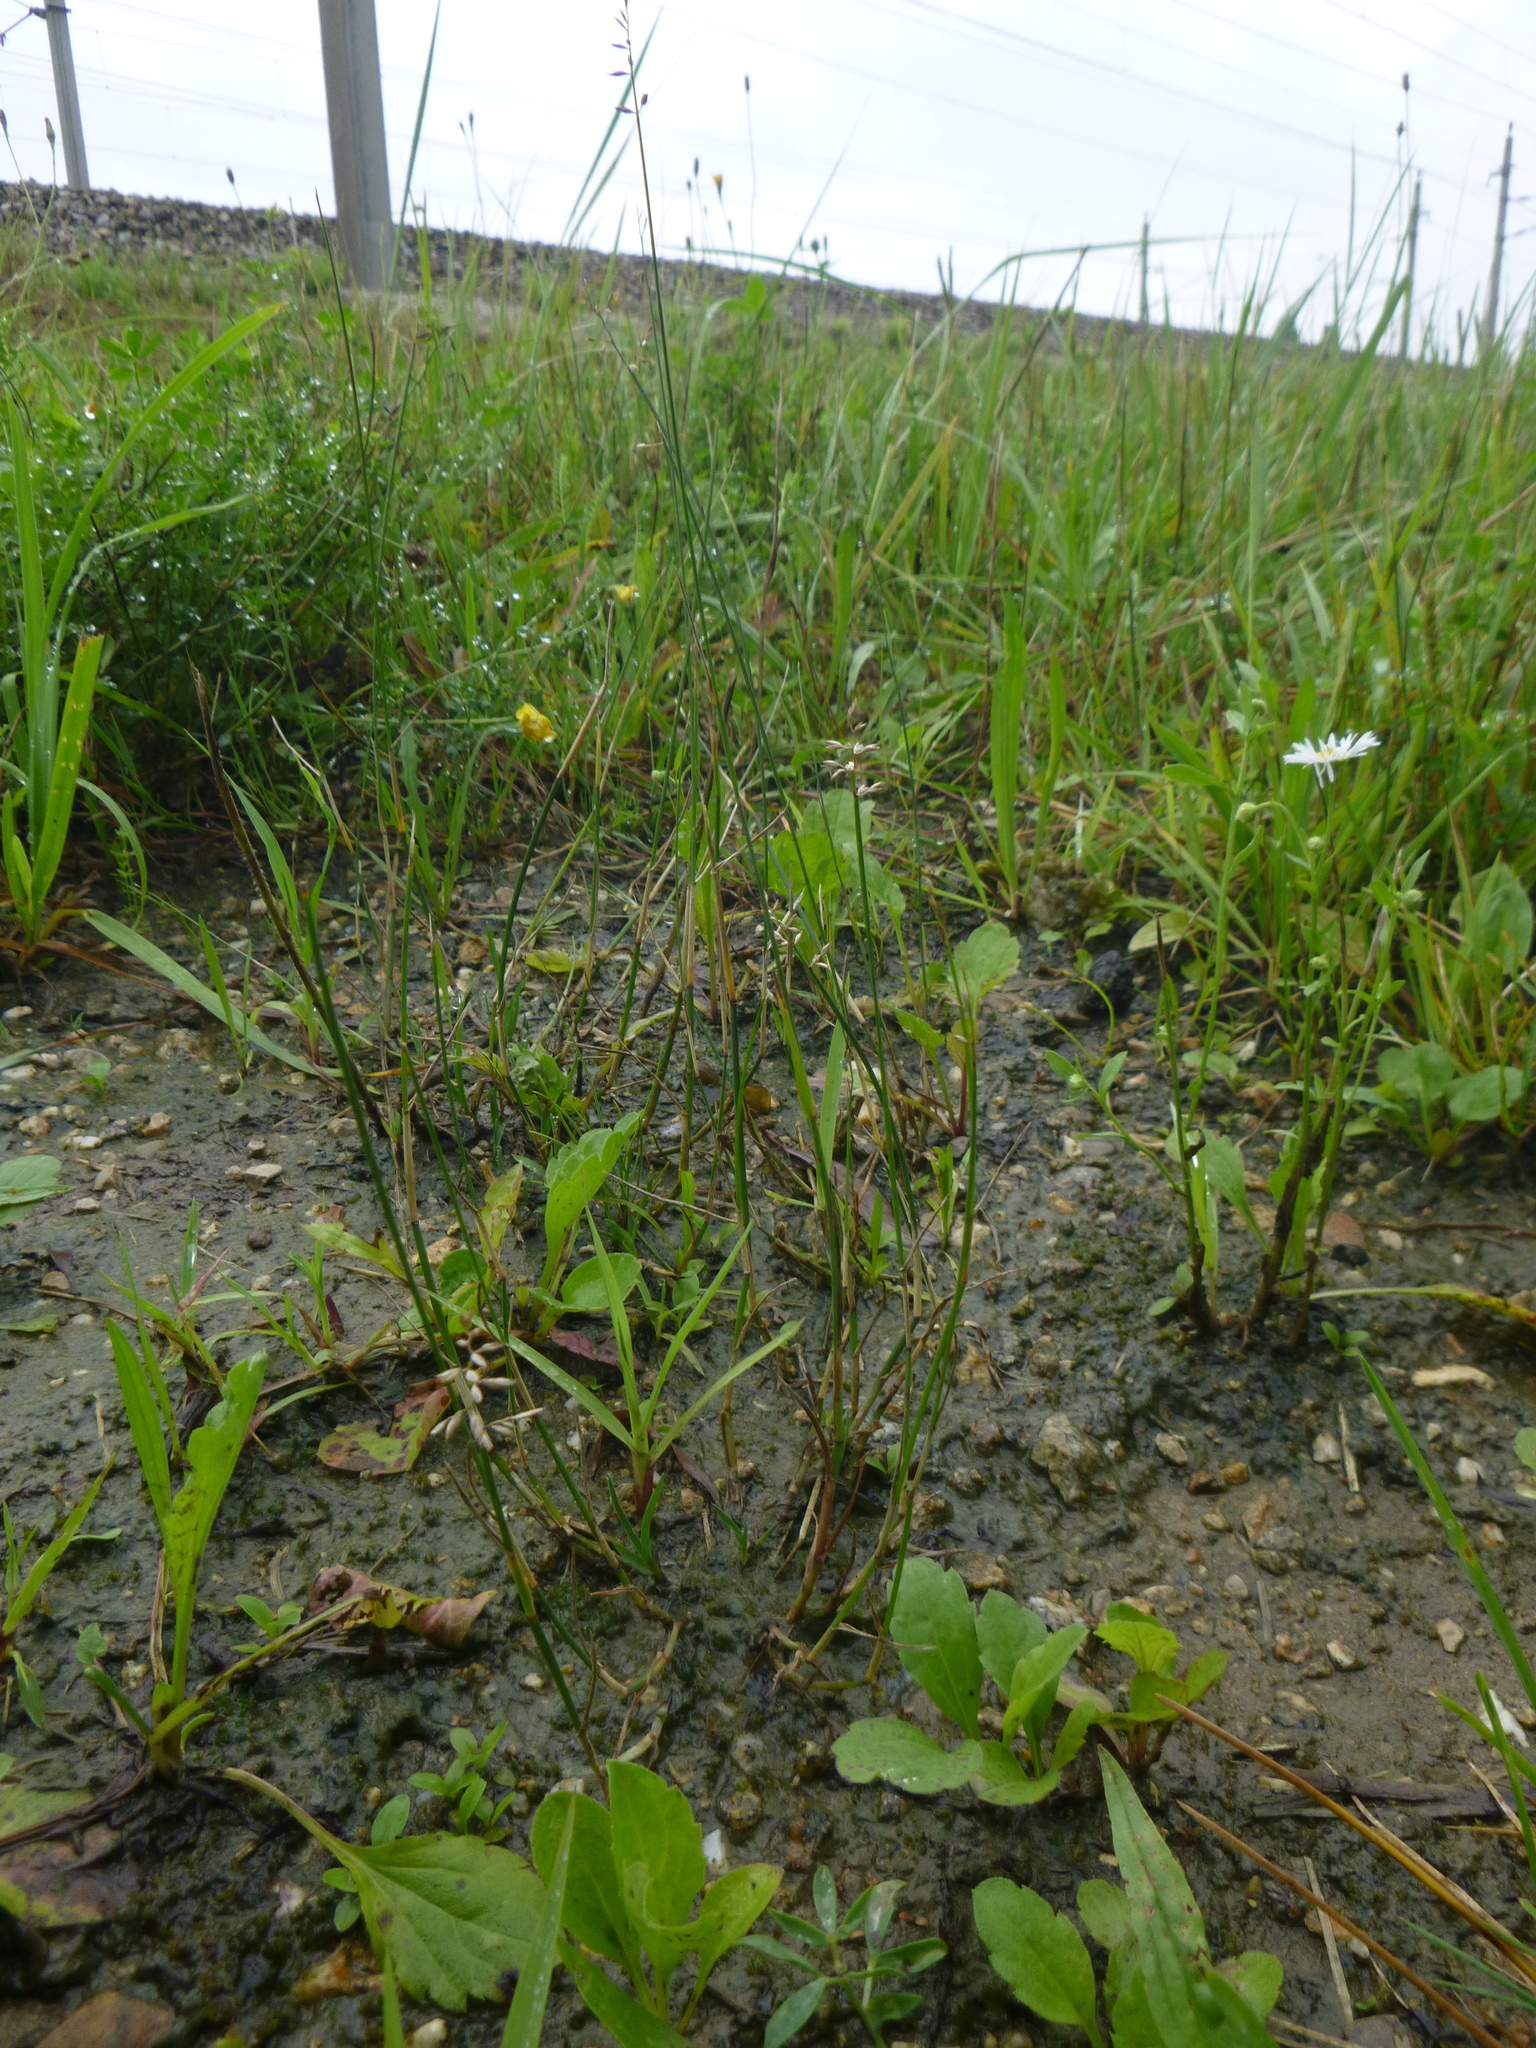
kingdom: Plantae
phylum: Tracheophyta
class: Liliopsida
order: Poales
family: Poaceae
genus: Poa
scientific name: Poa compressa
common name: Canada bluegrass
